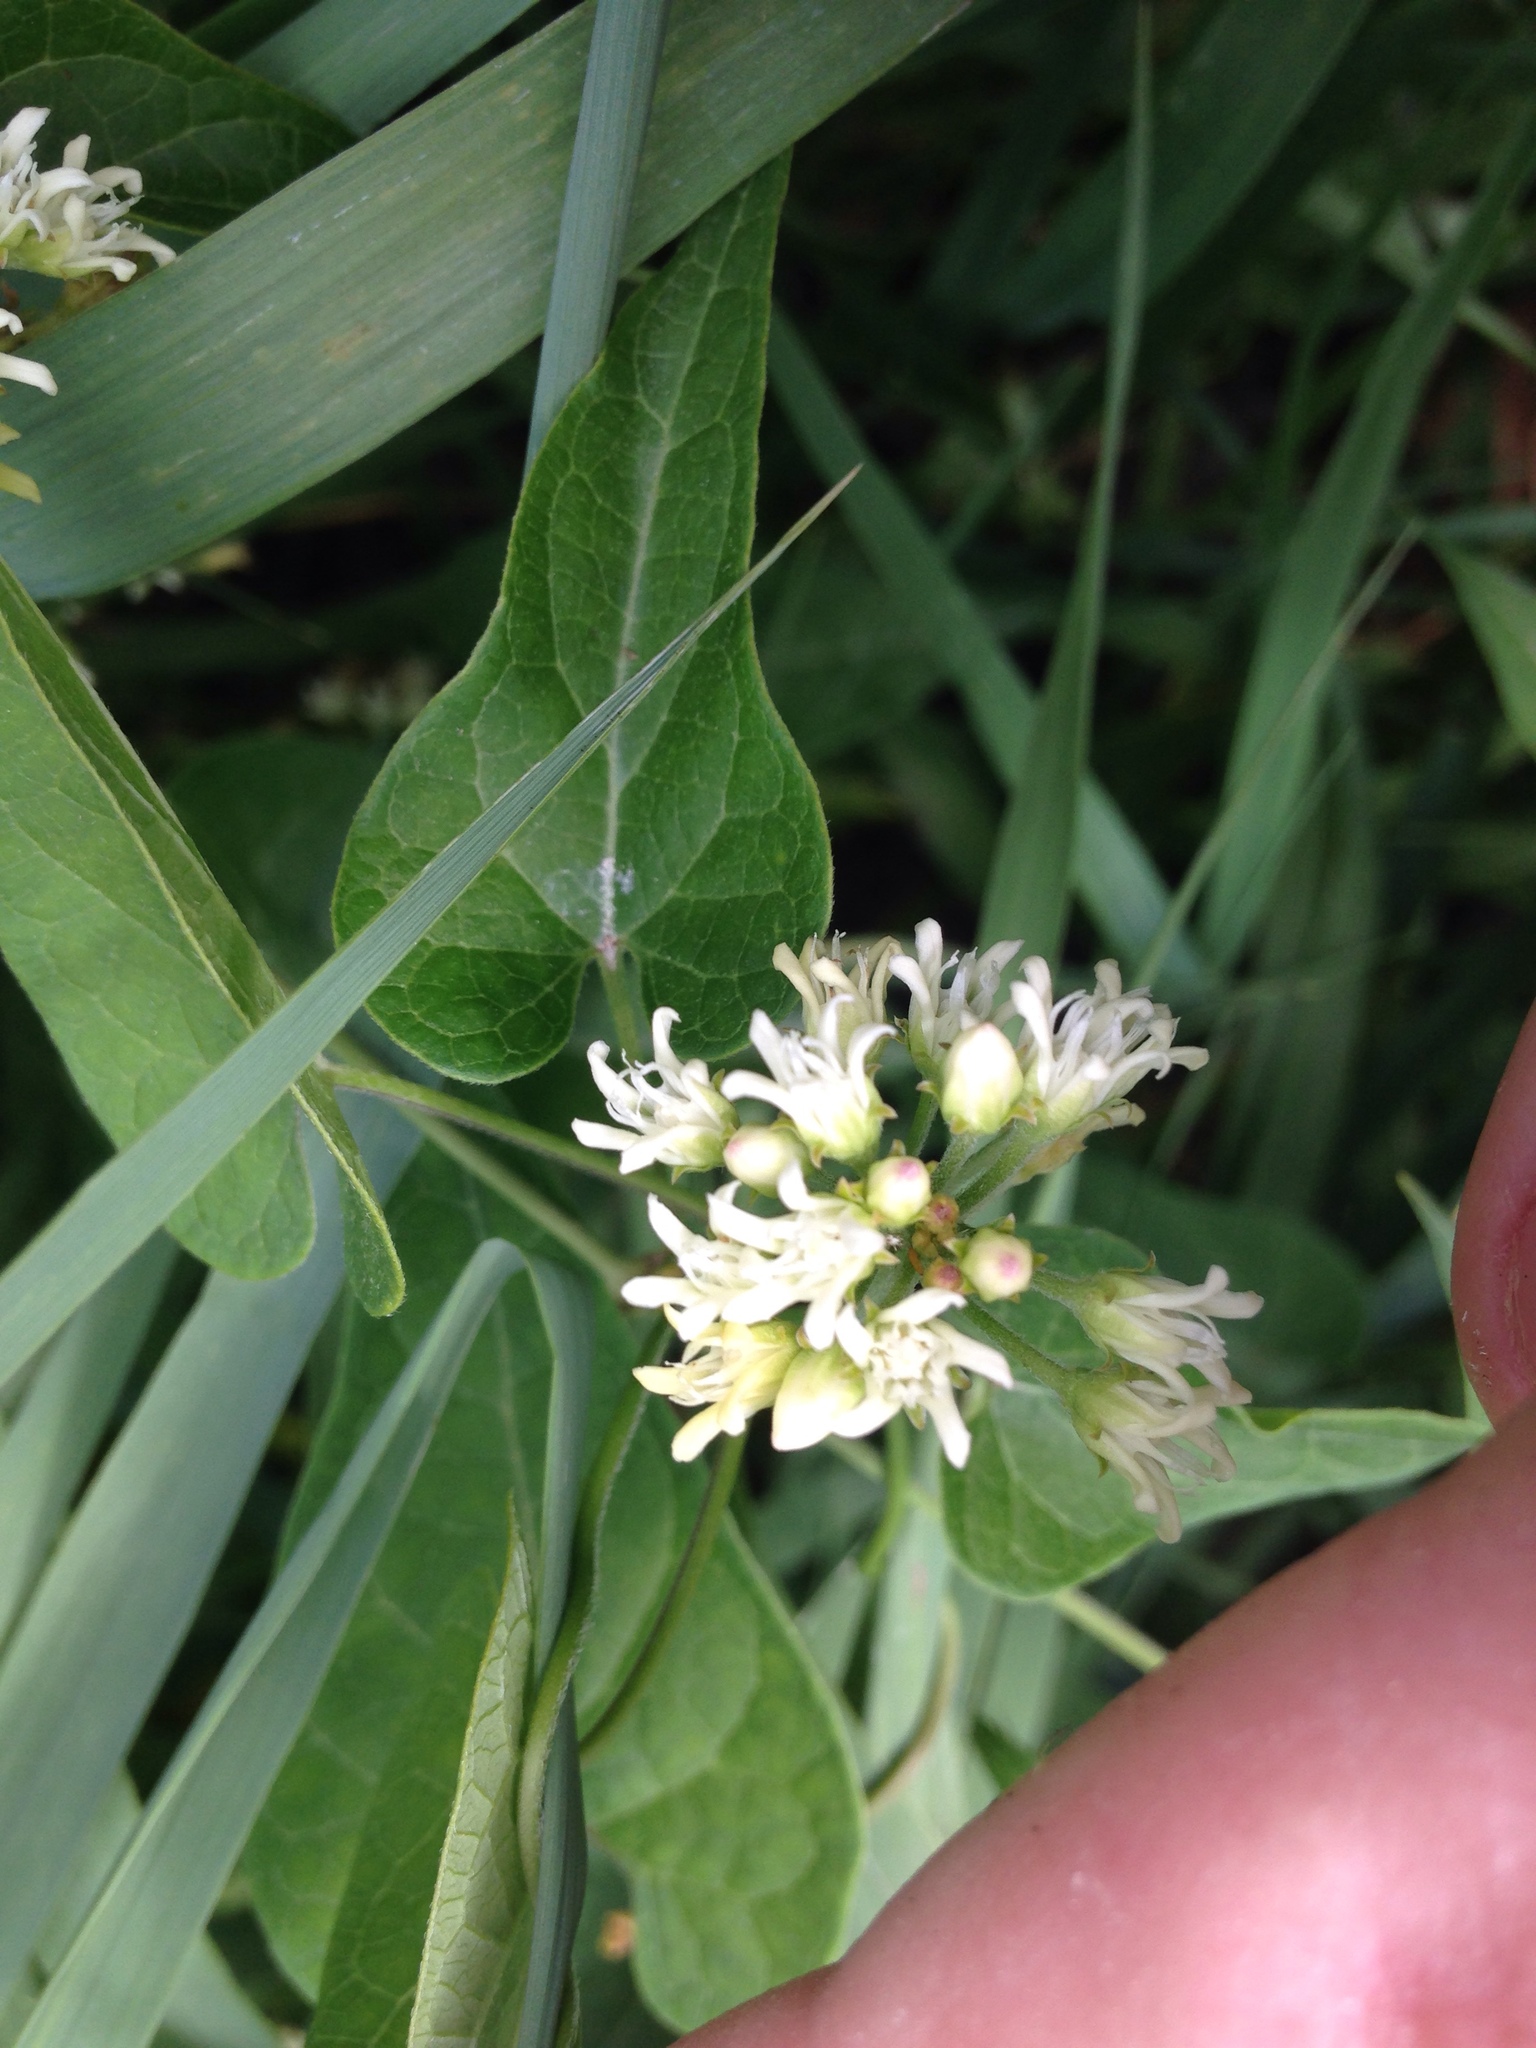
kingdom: Plantae
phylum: Tracheophyta
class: Magnoliopsida
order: Gentianales
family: Apocynaceae
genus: Cynanchum
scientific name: Cynanchum laeve
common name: Sandvine
